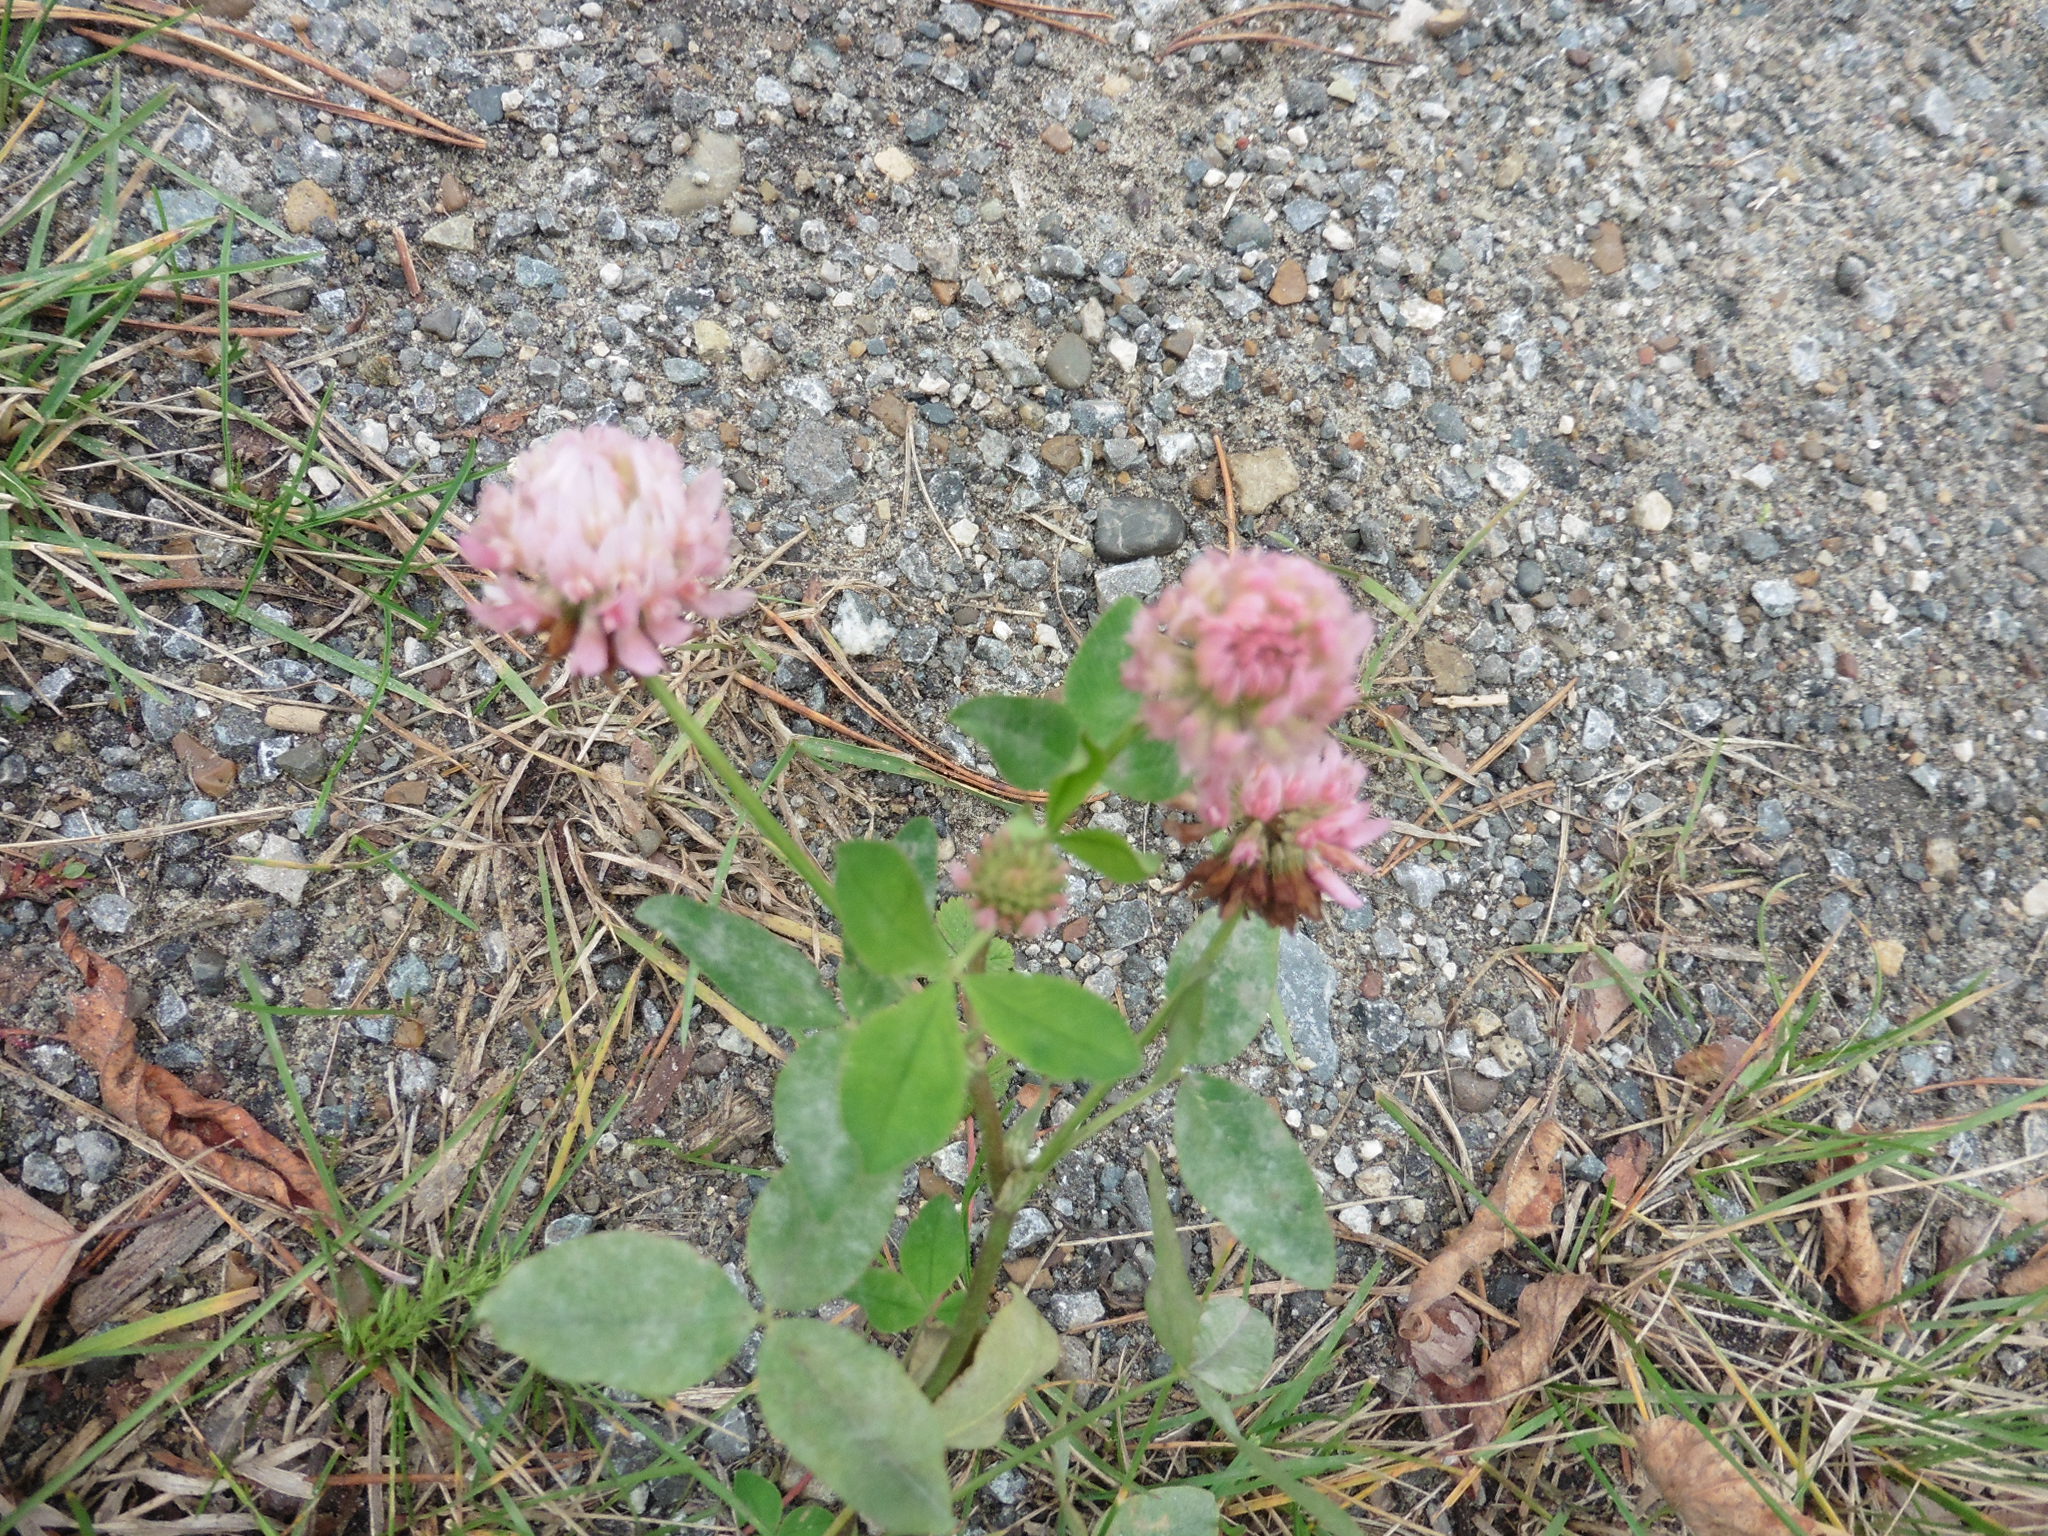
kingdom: Plantae
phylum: Tracheophyta
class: Magnoliopsida
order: Fabales
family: Fabaceae
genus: Trifolium
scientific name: Trifolium hybridum
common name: Alsike clover
